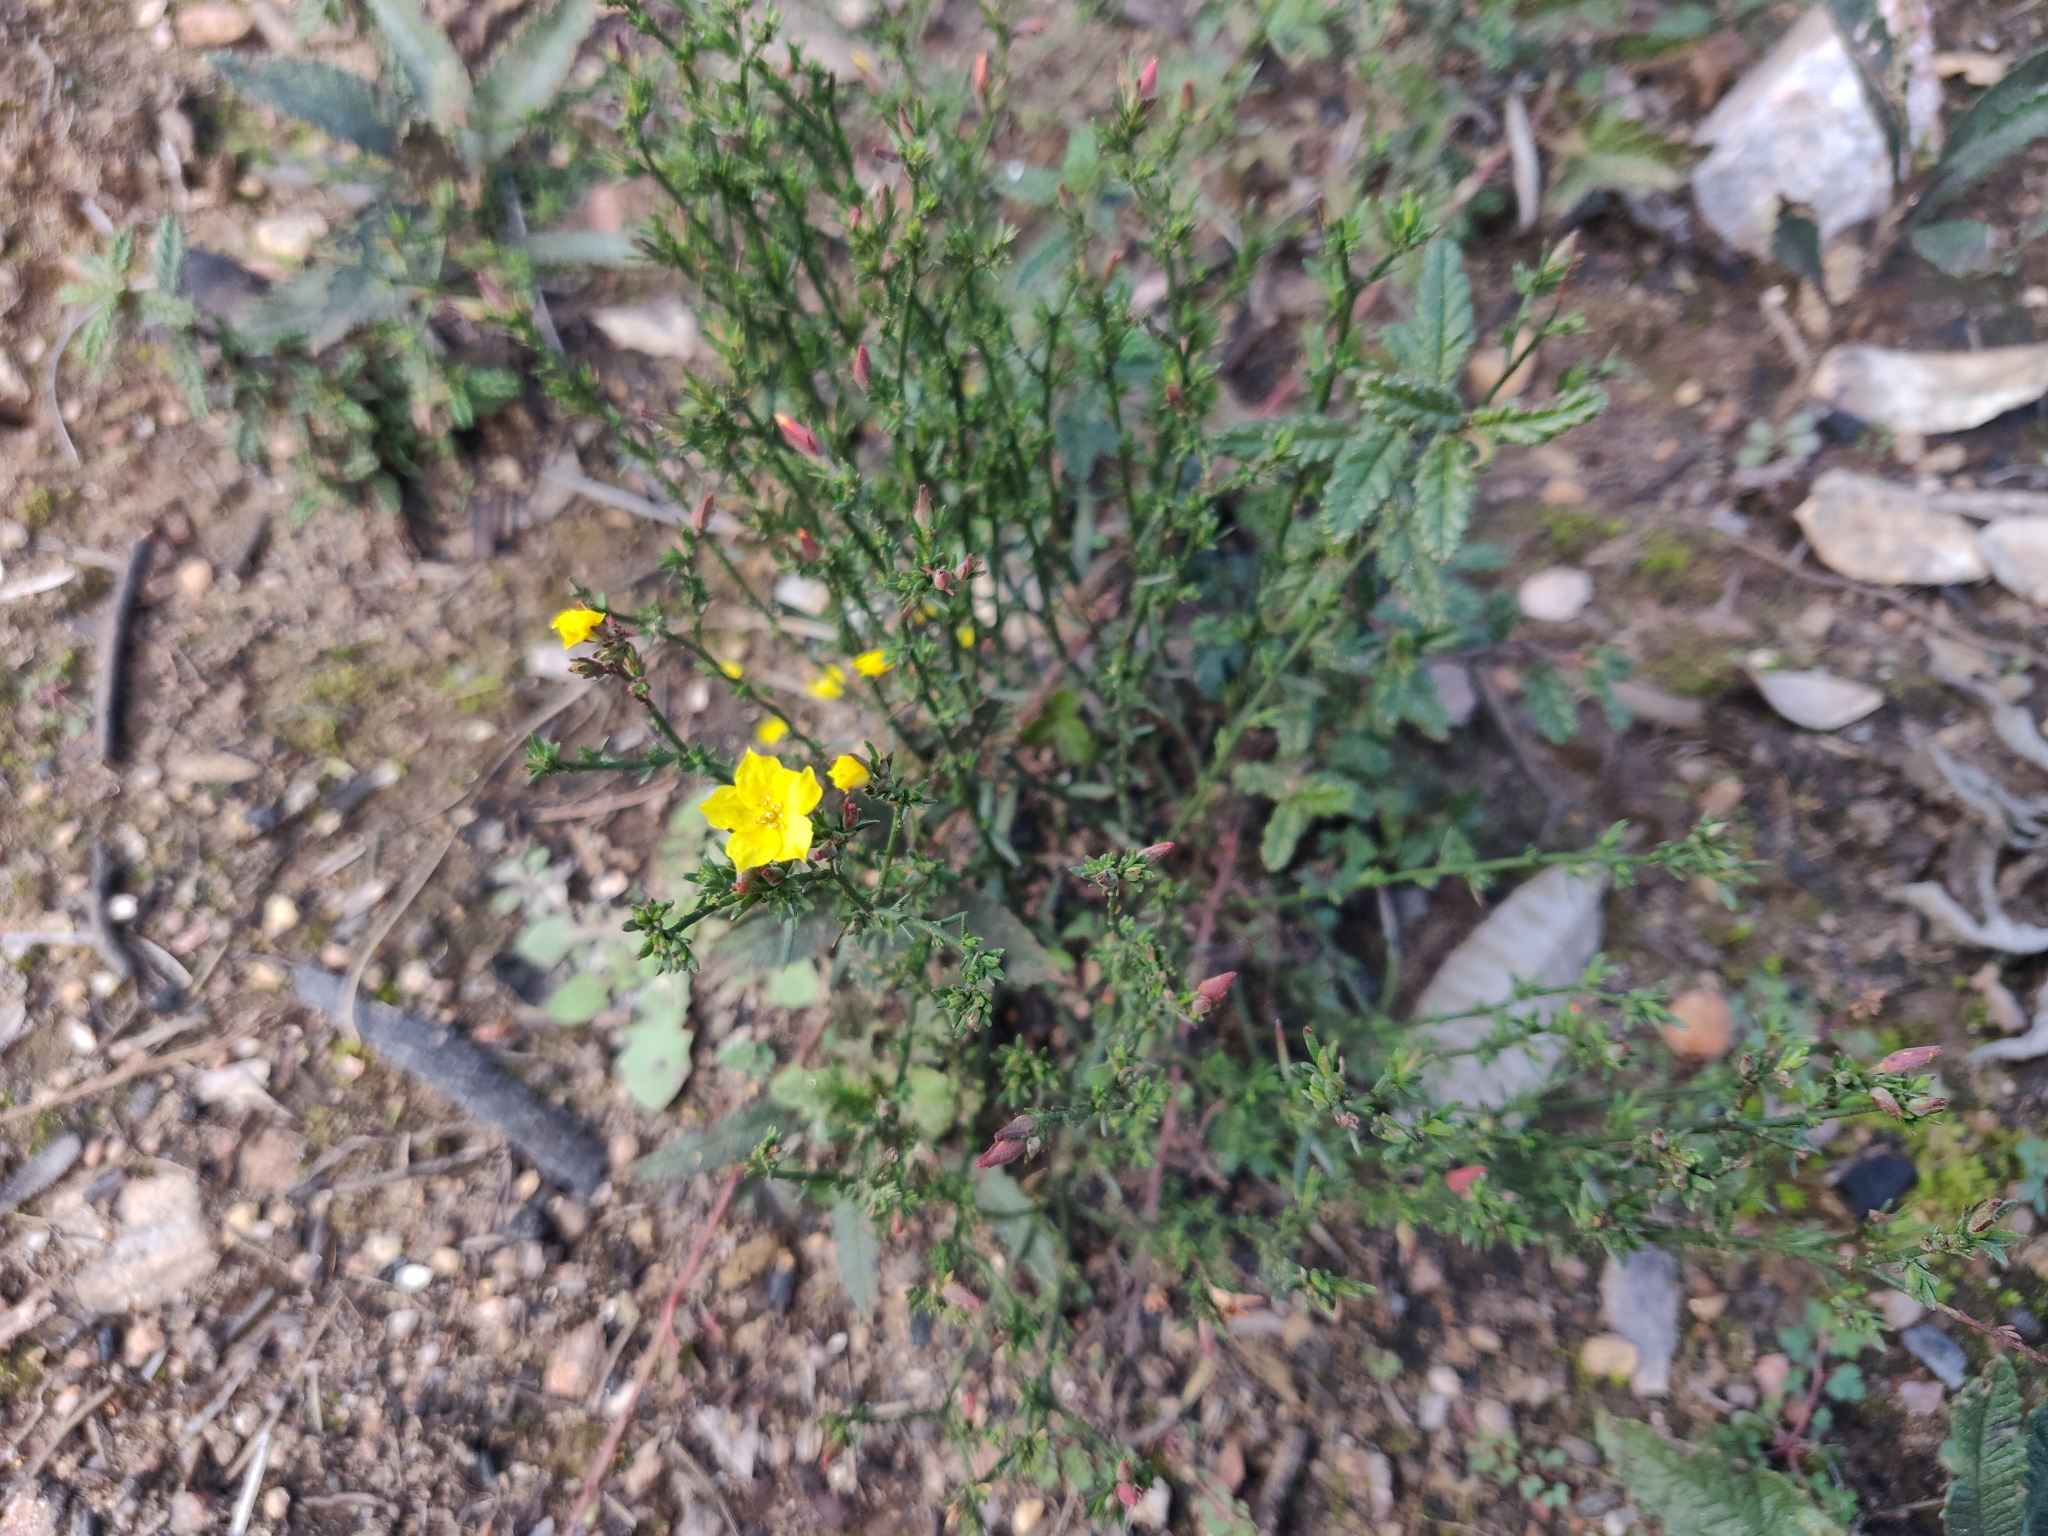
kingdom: Plantae
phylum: Tracheophyta
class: Magnoliopsida
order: Malvales
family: Cistaceae
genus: Crocanthemum
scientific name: Crocanthemum scoparium
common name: Broom-rose
